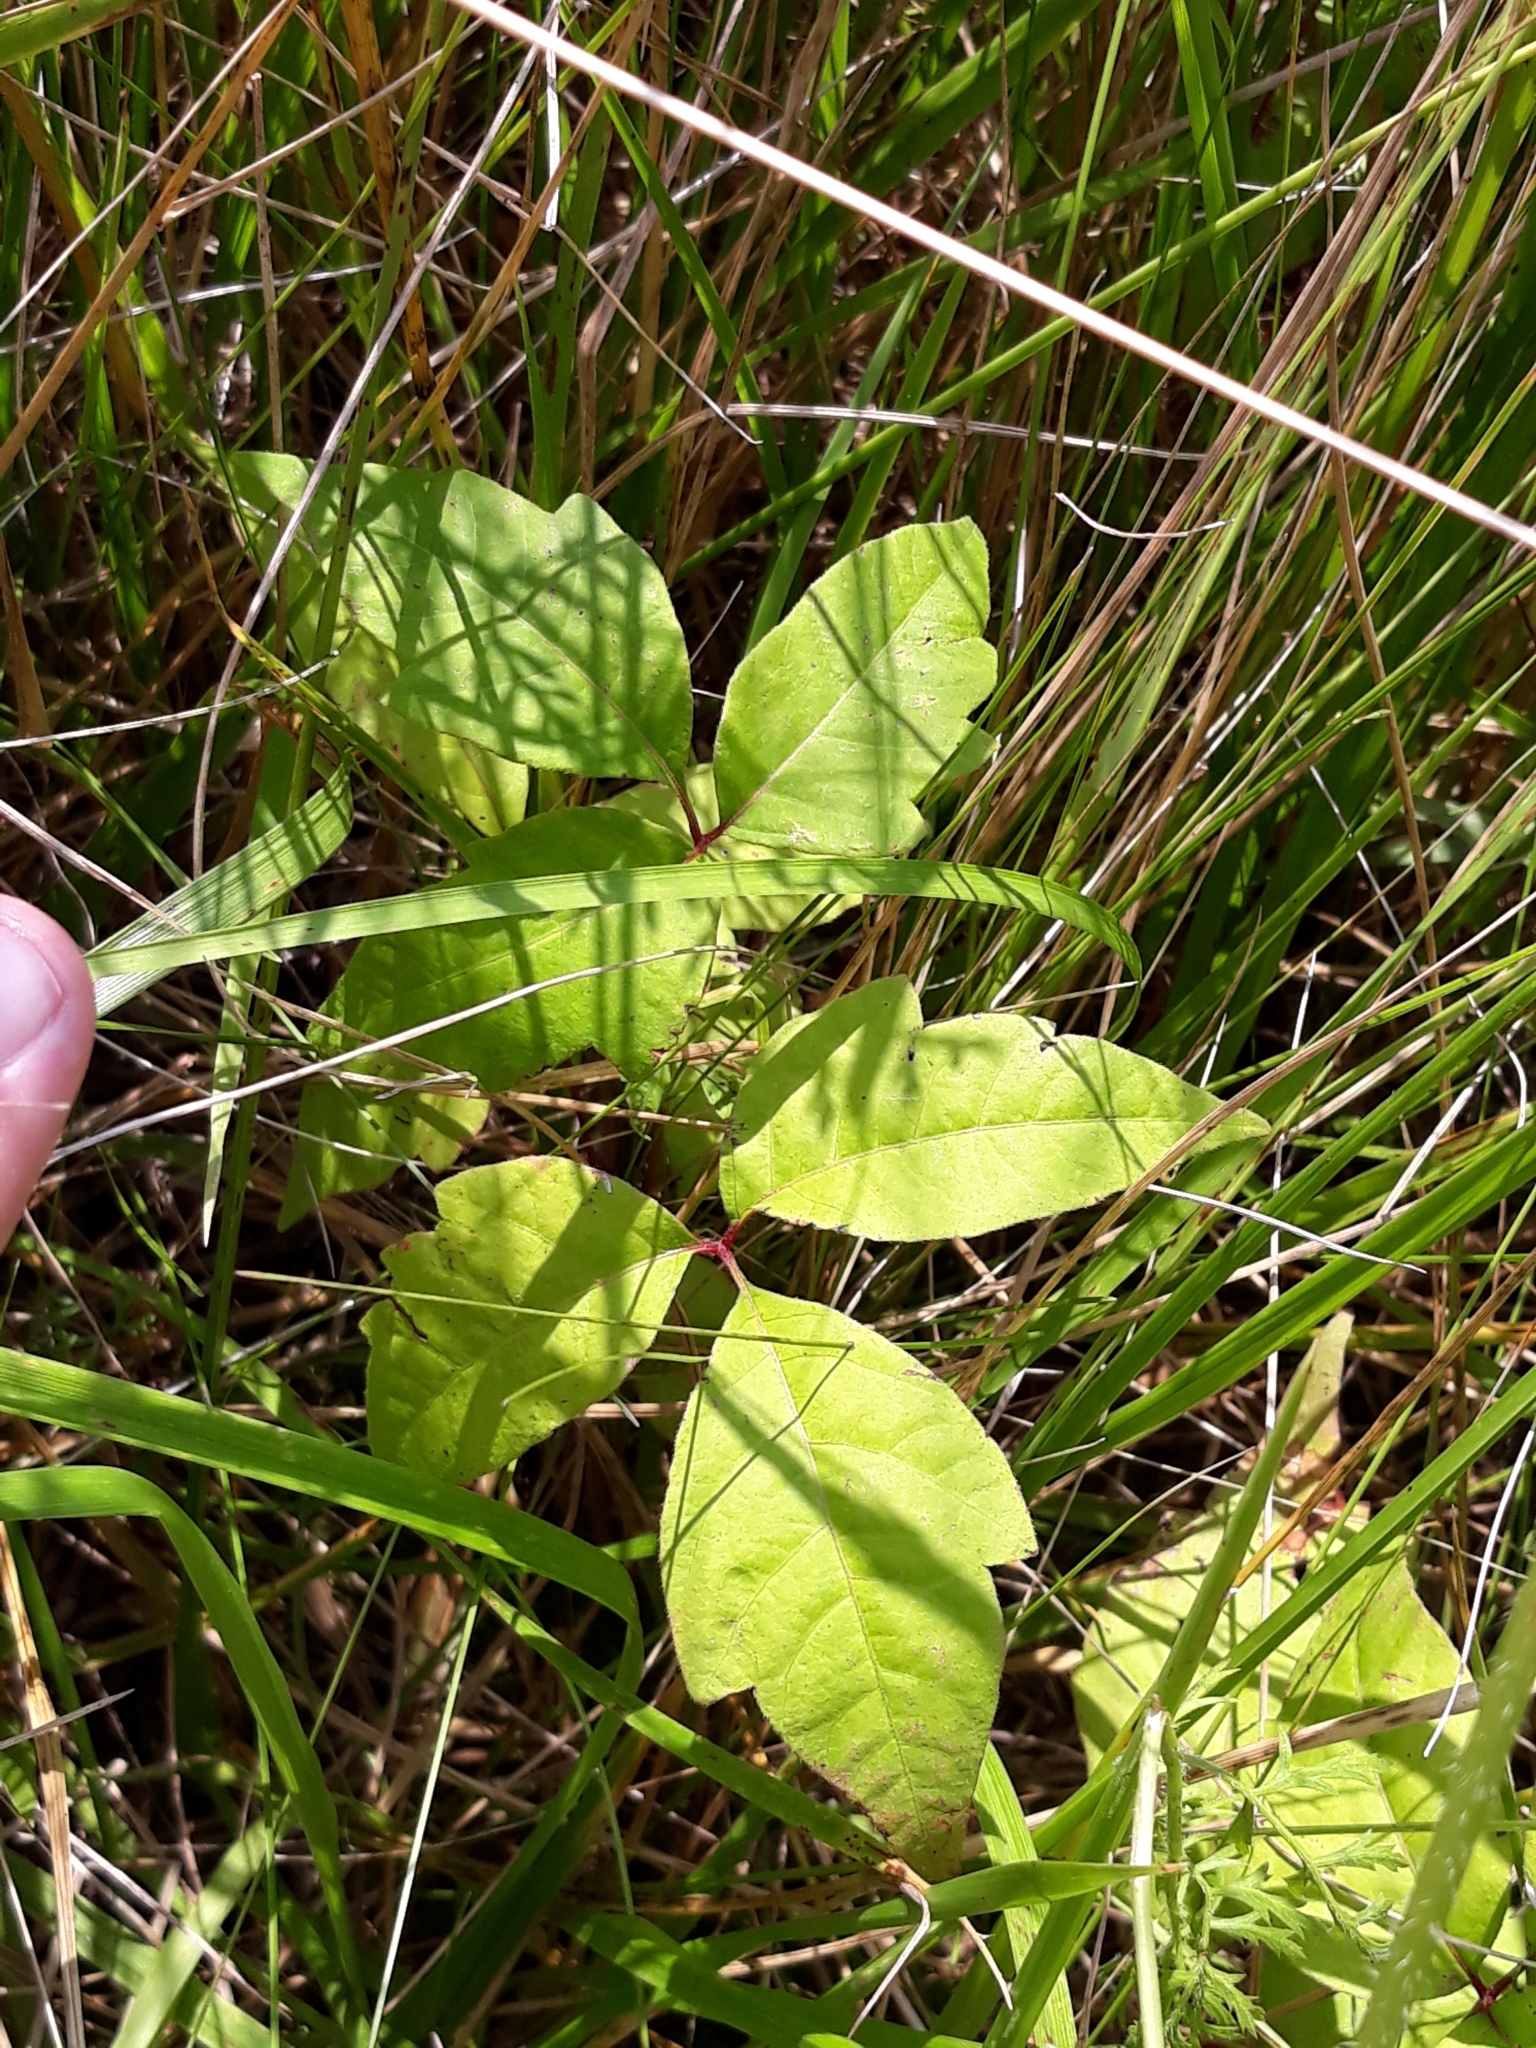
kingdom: Plantae
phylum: Tracheophyta
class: Magnoliopsida
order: Sapindales
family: Anacardiaceae
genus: Toxicodendron
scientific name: Toxicodendron radicans
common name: Poison ivy
